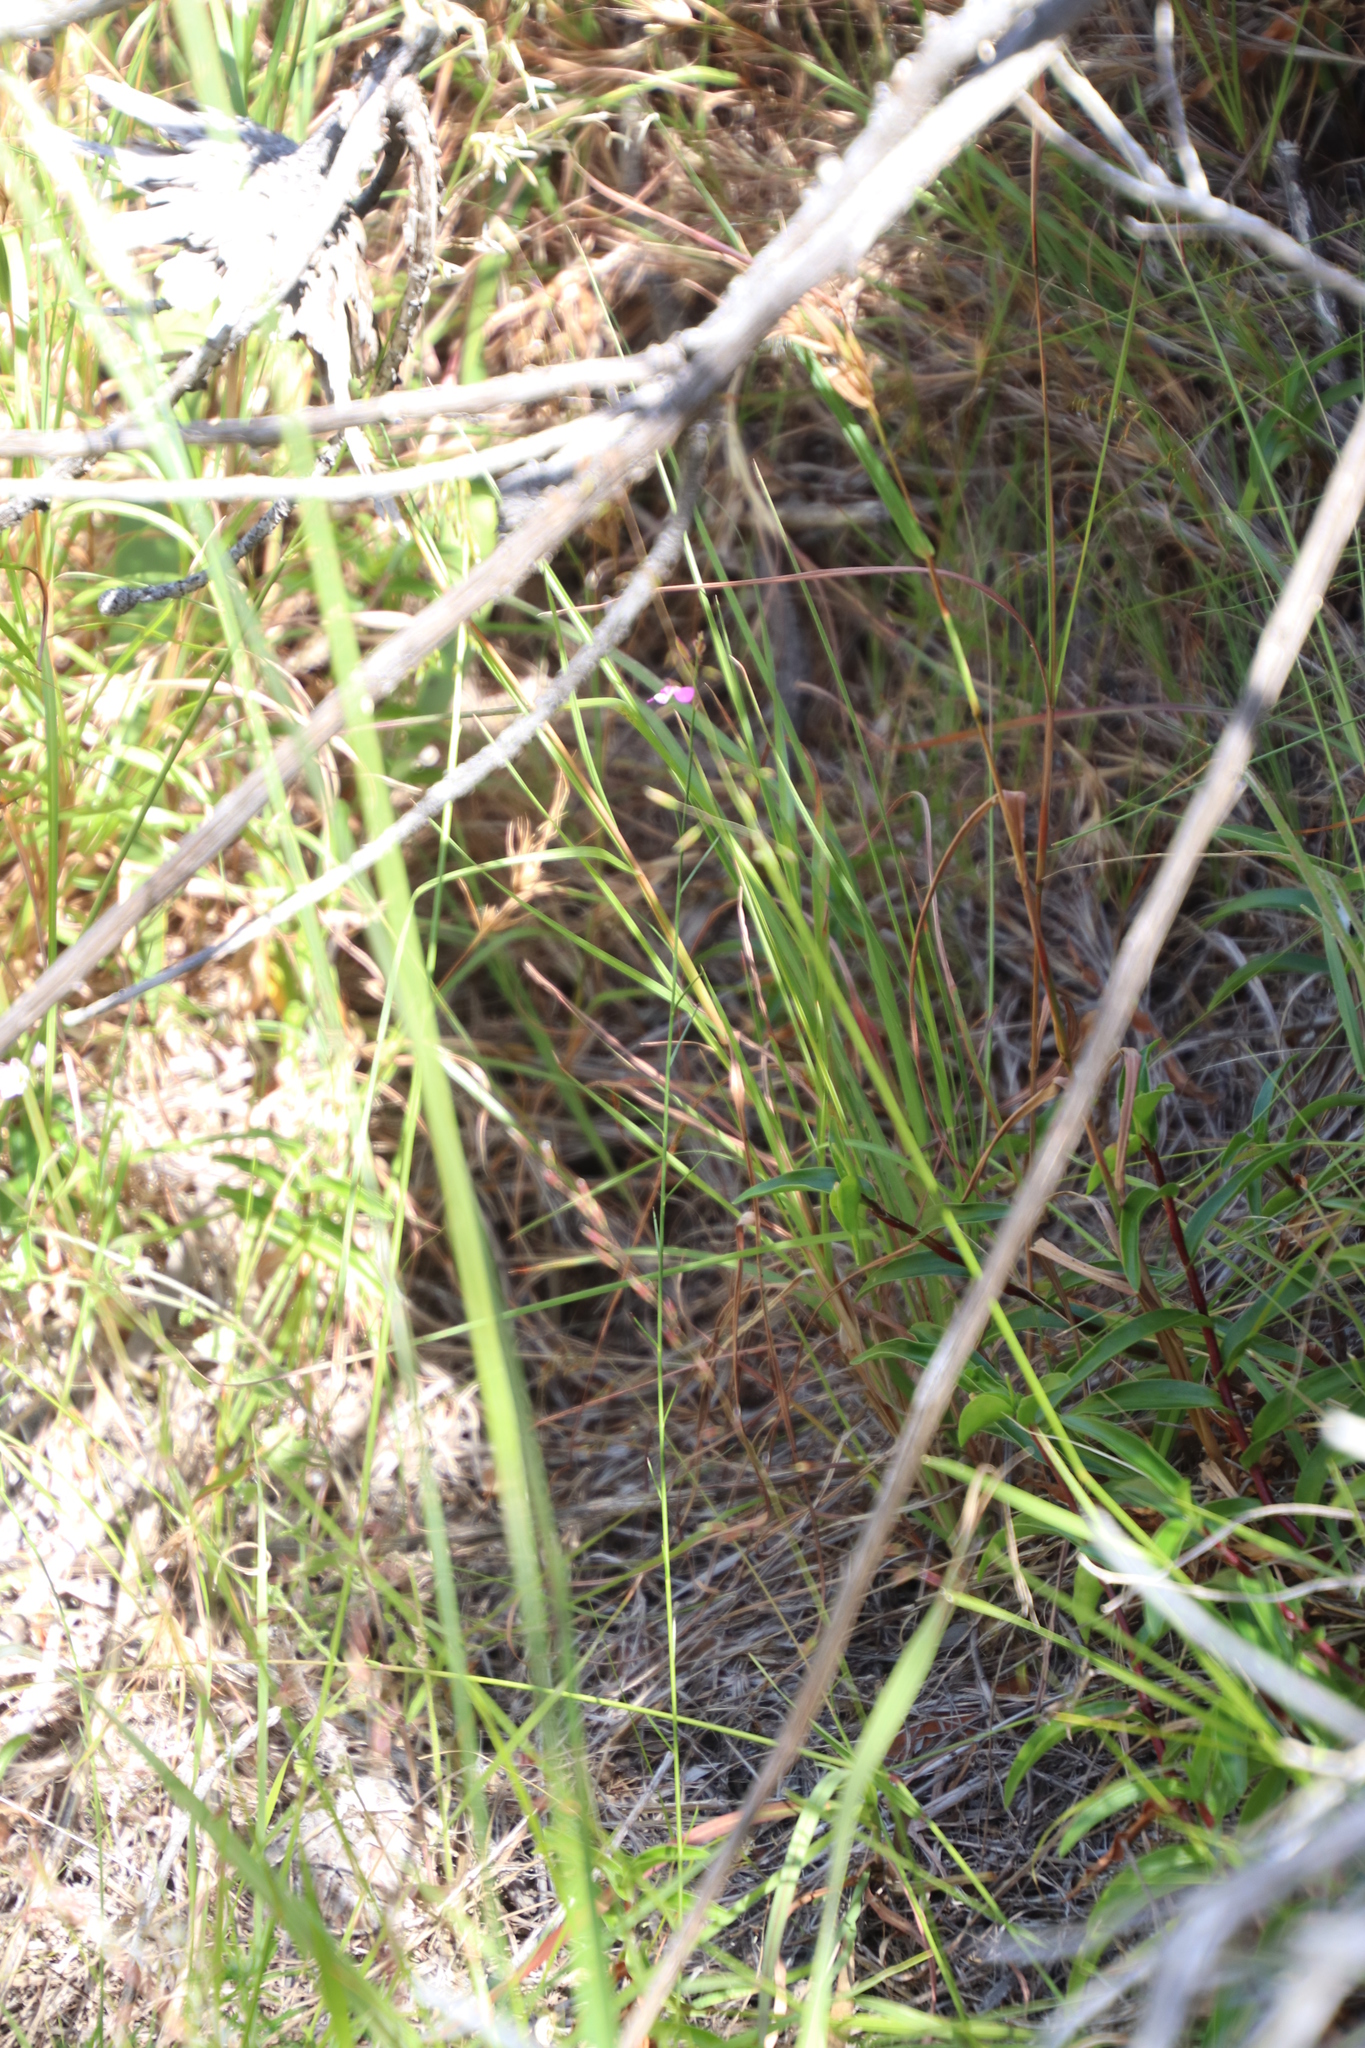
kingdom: Plantae
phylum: Tracheophyta
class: Magnoliopsida
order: Fabales
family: Polygalaceae
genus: Polygala
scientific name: Polygala garcini
